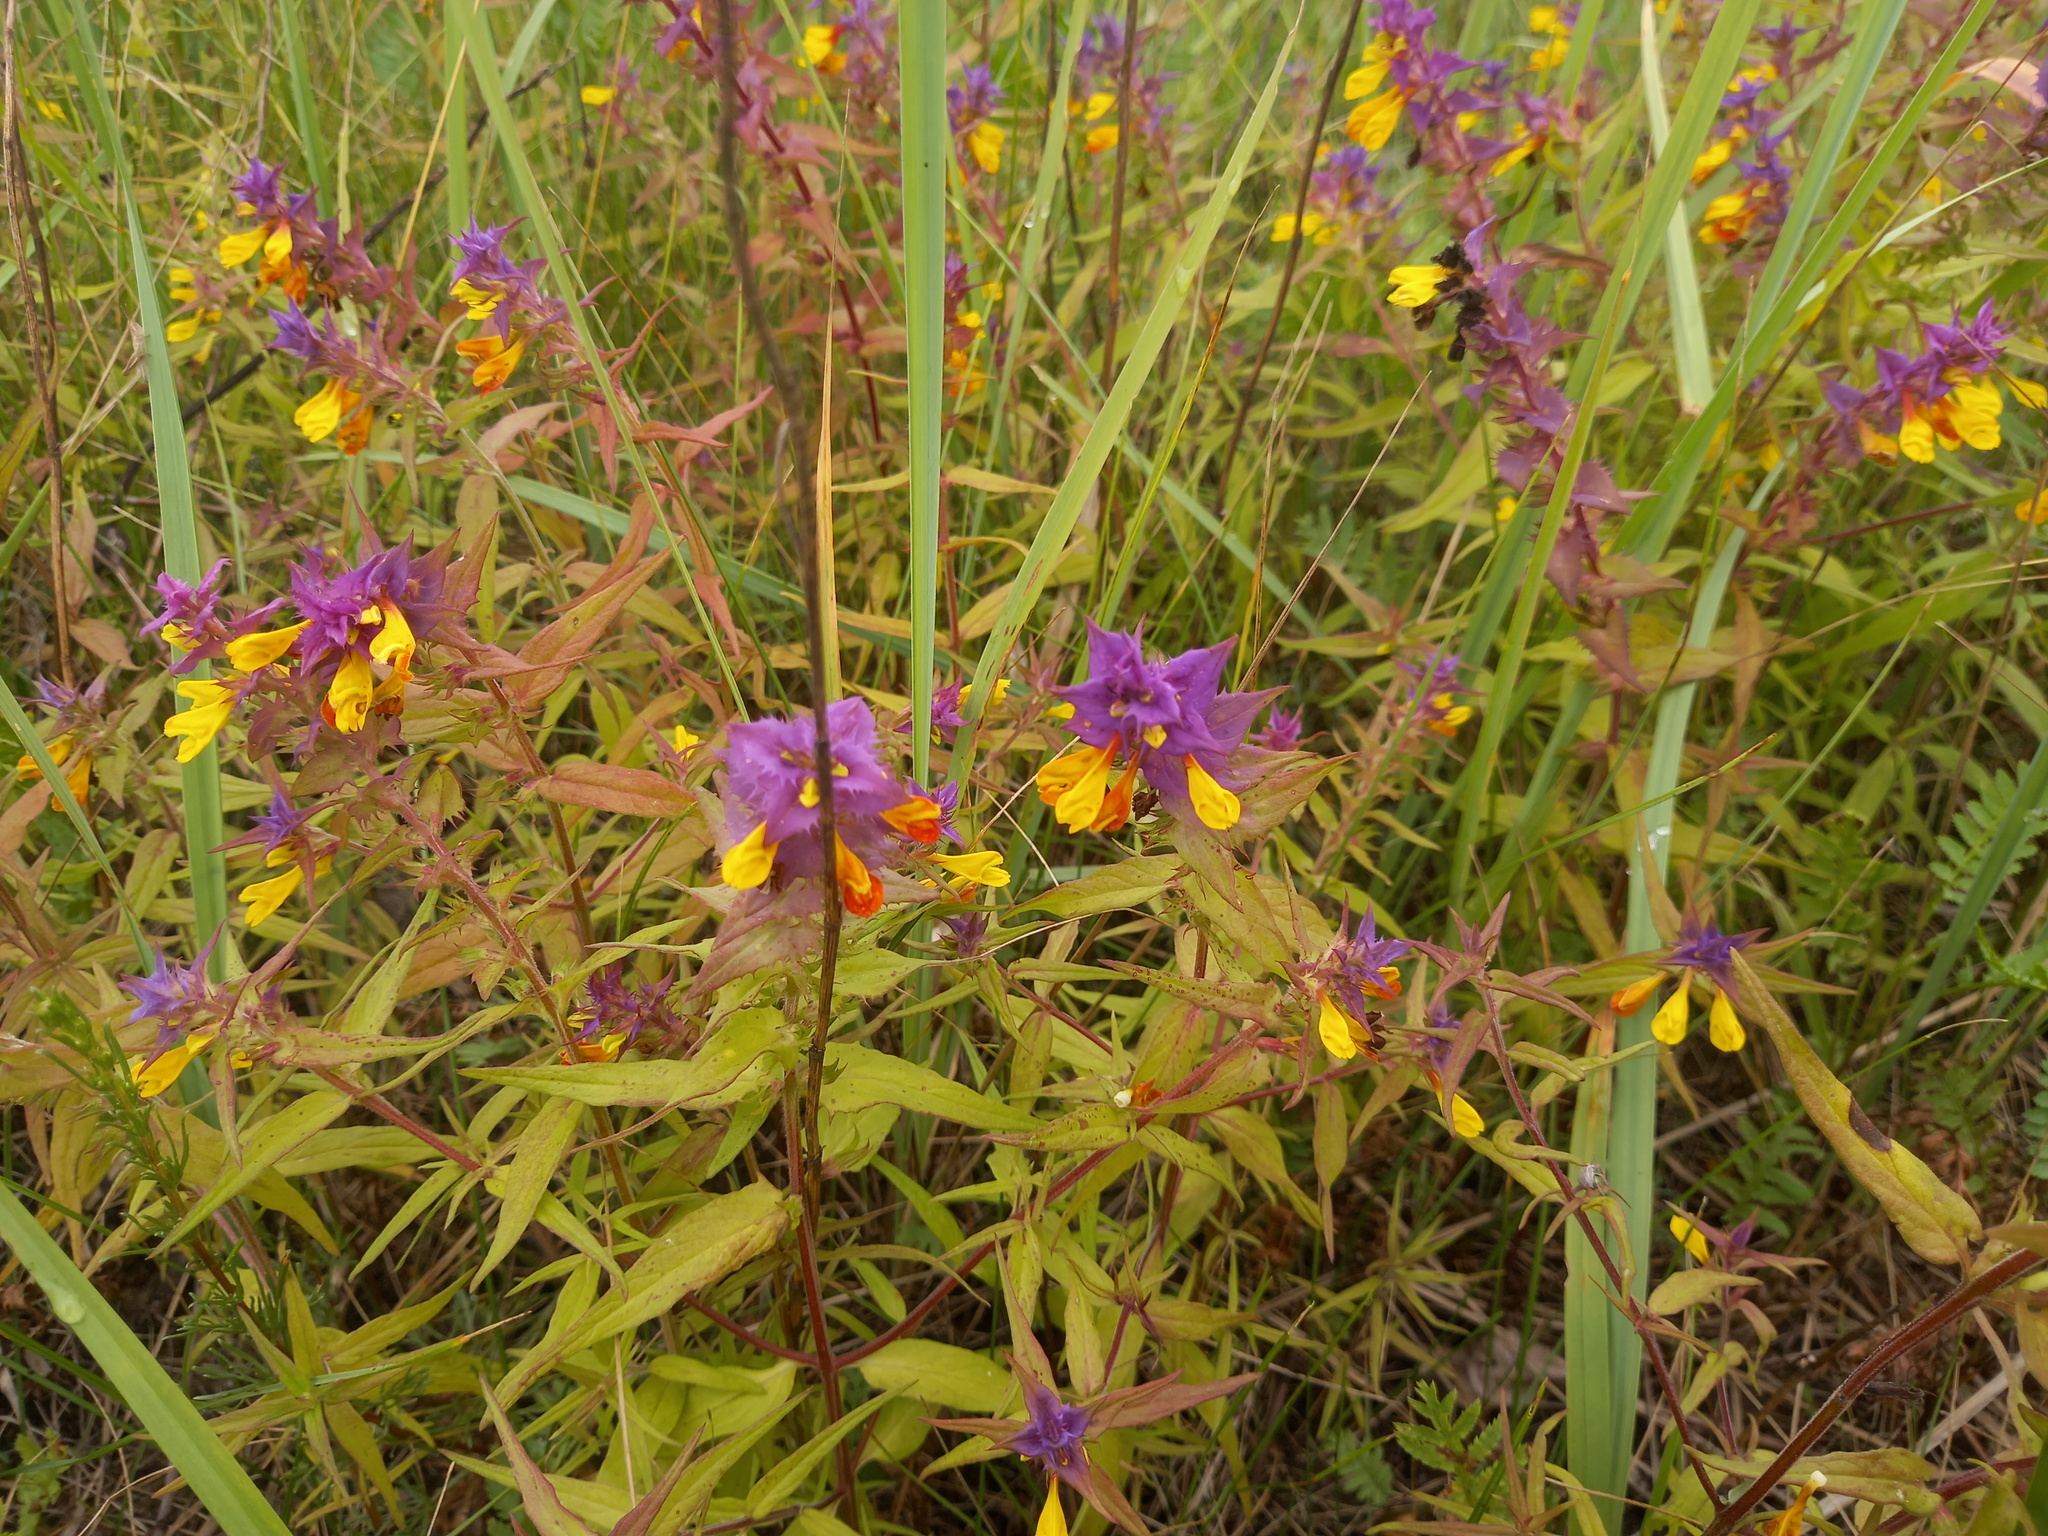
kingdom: Plantae
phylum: Tracheophyta
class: Magnoliopsida
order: Lamiales
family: Orobanchaceae
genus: Melampyrum
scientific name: Melampyrum nemorosum
